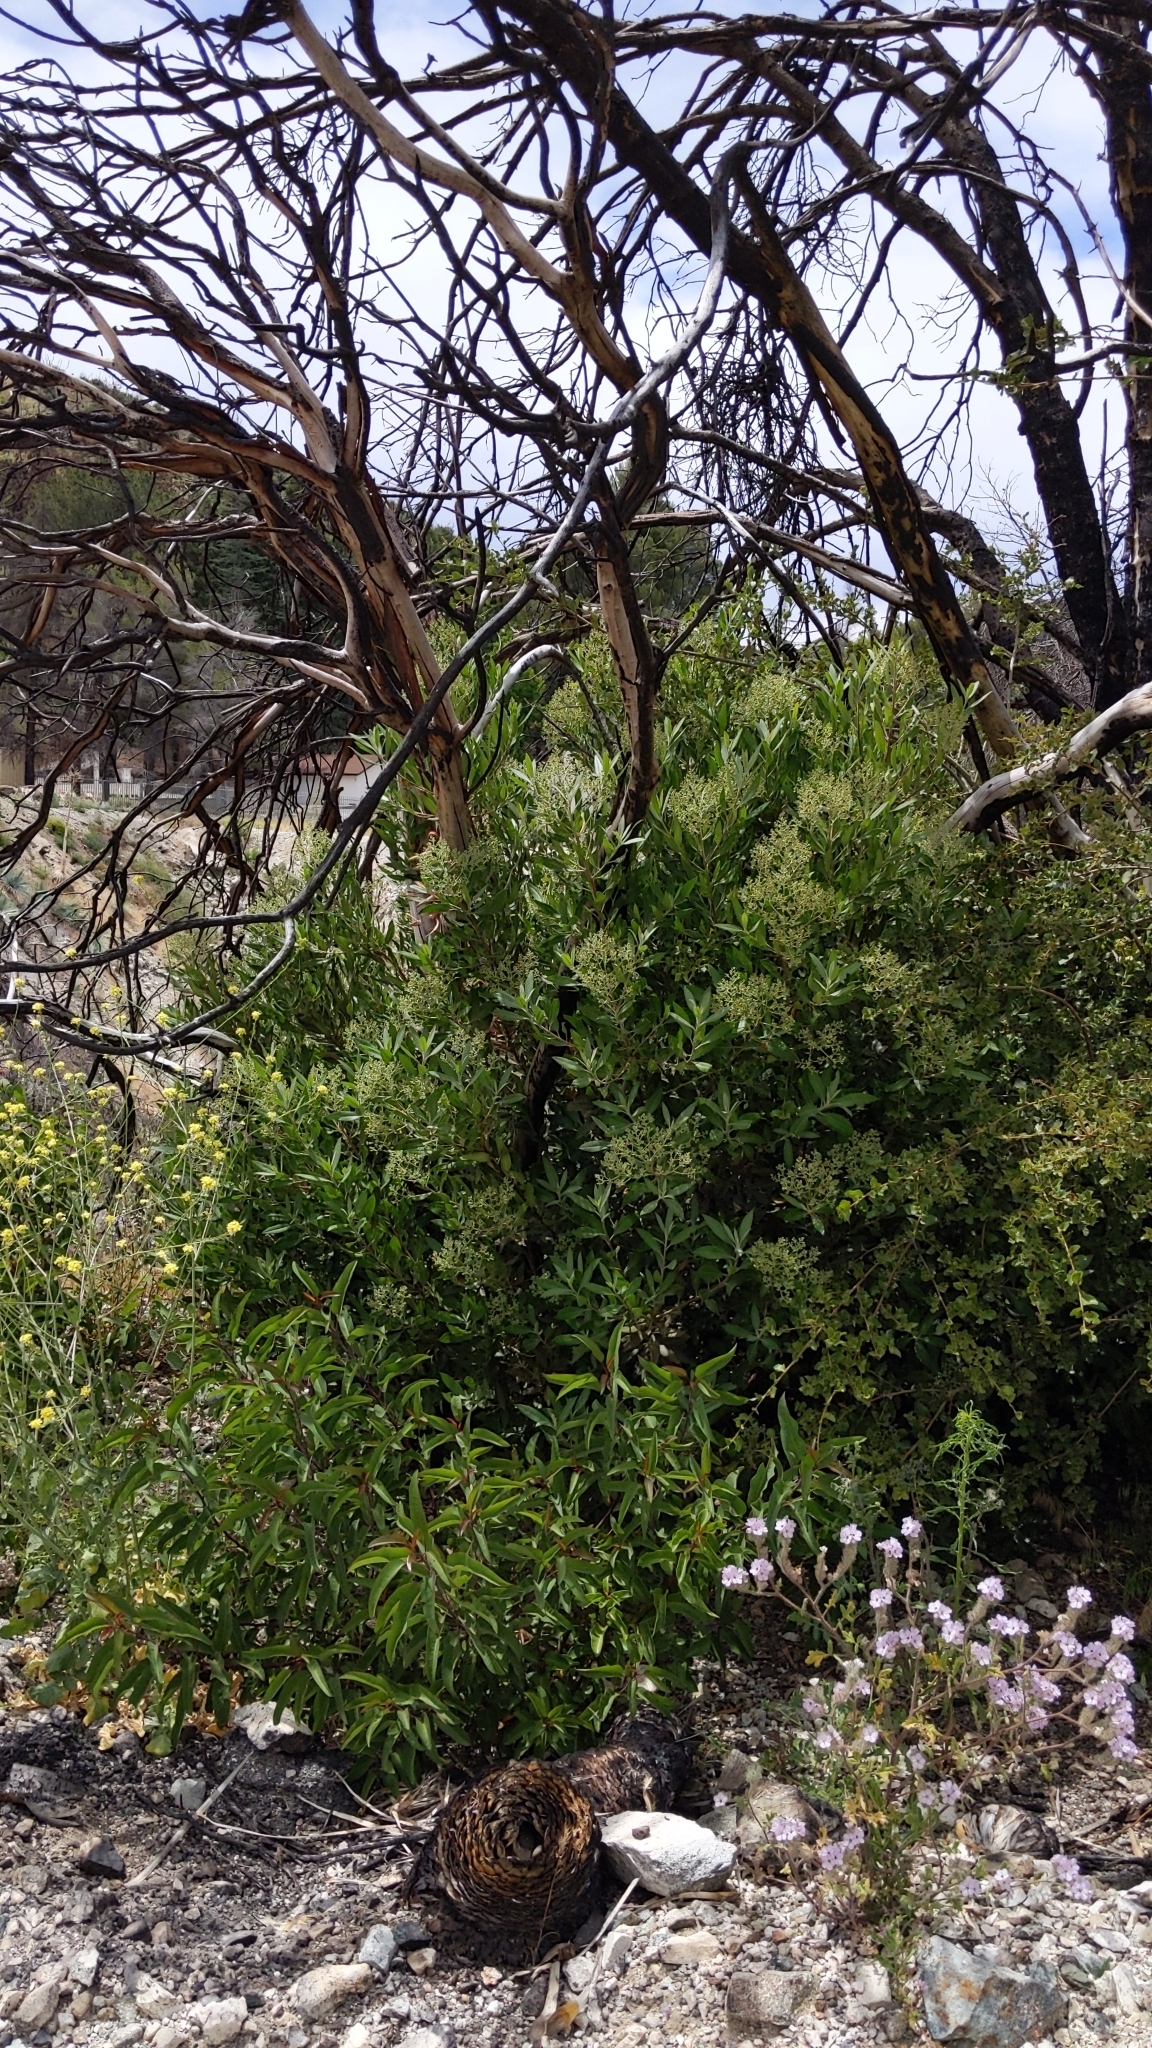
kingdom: Plantae
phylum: Tracheophyta
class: Magnoliopsida
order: Rosales
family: Rosaceae
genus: Heteromeles
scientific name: Heteromeles arbutifolia
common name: California-holly
